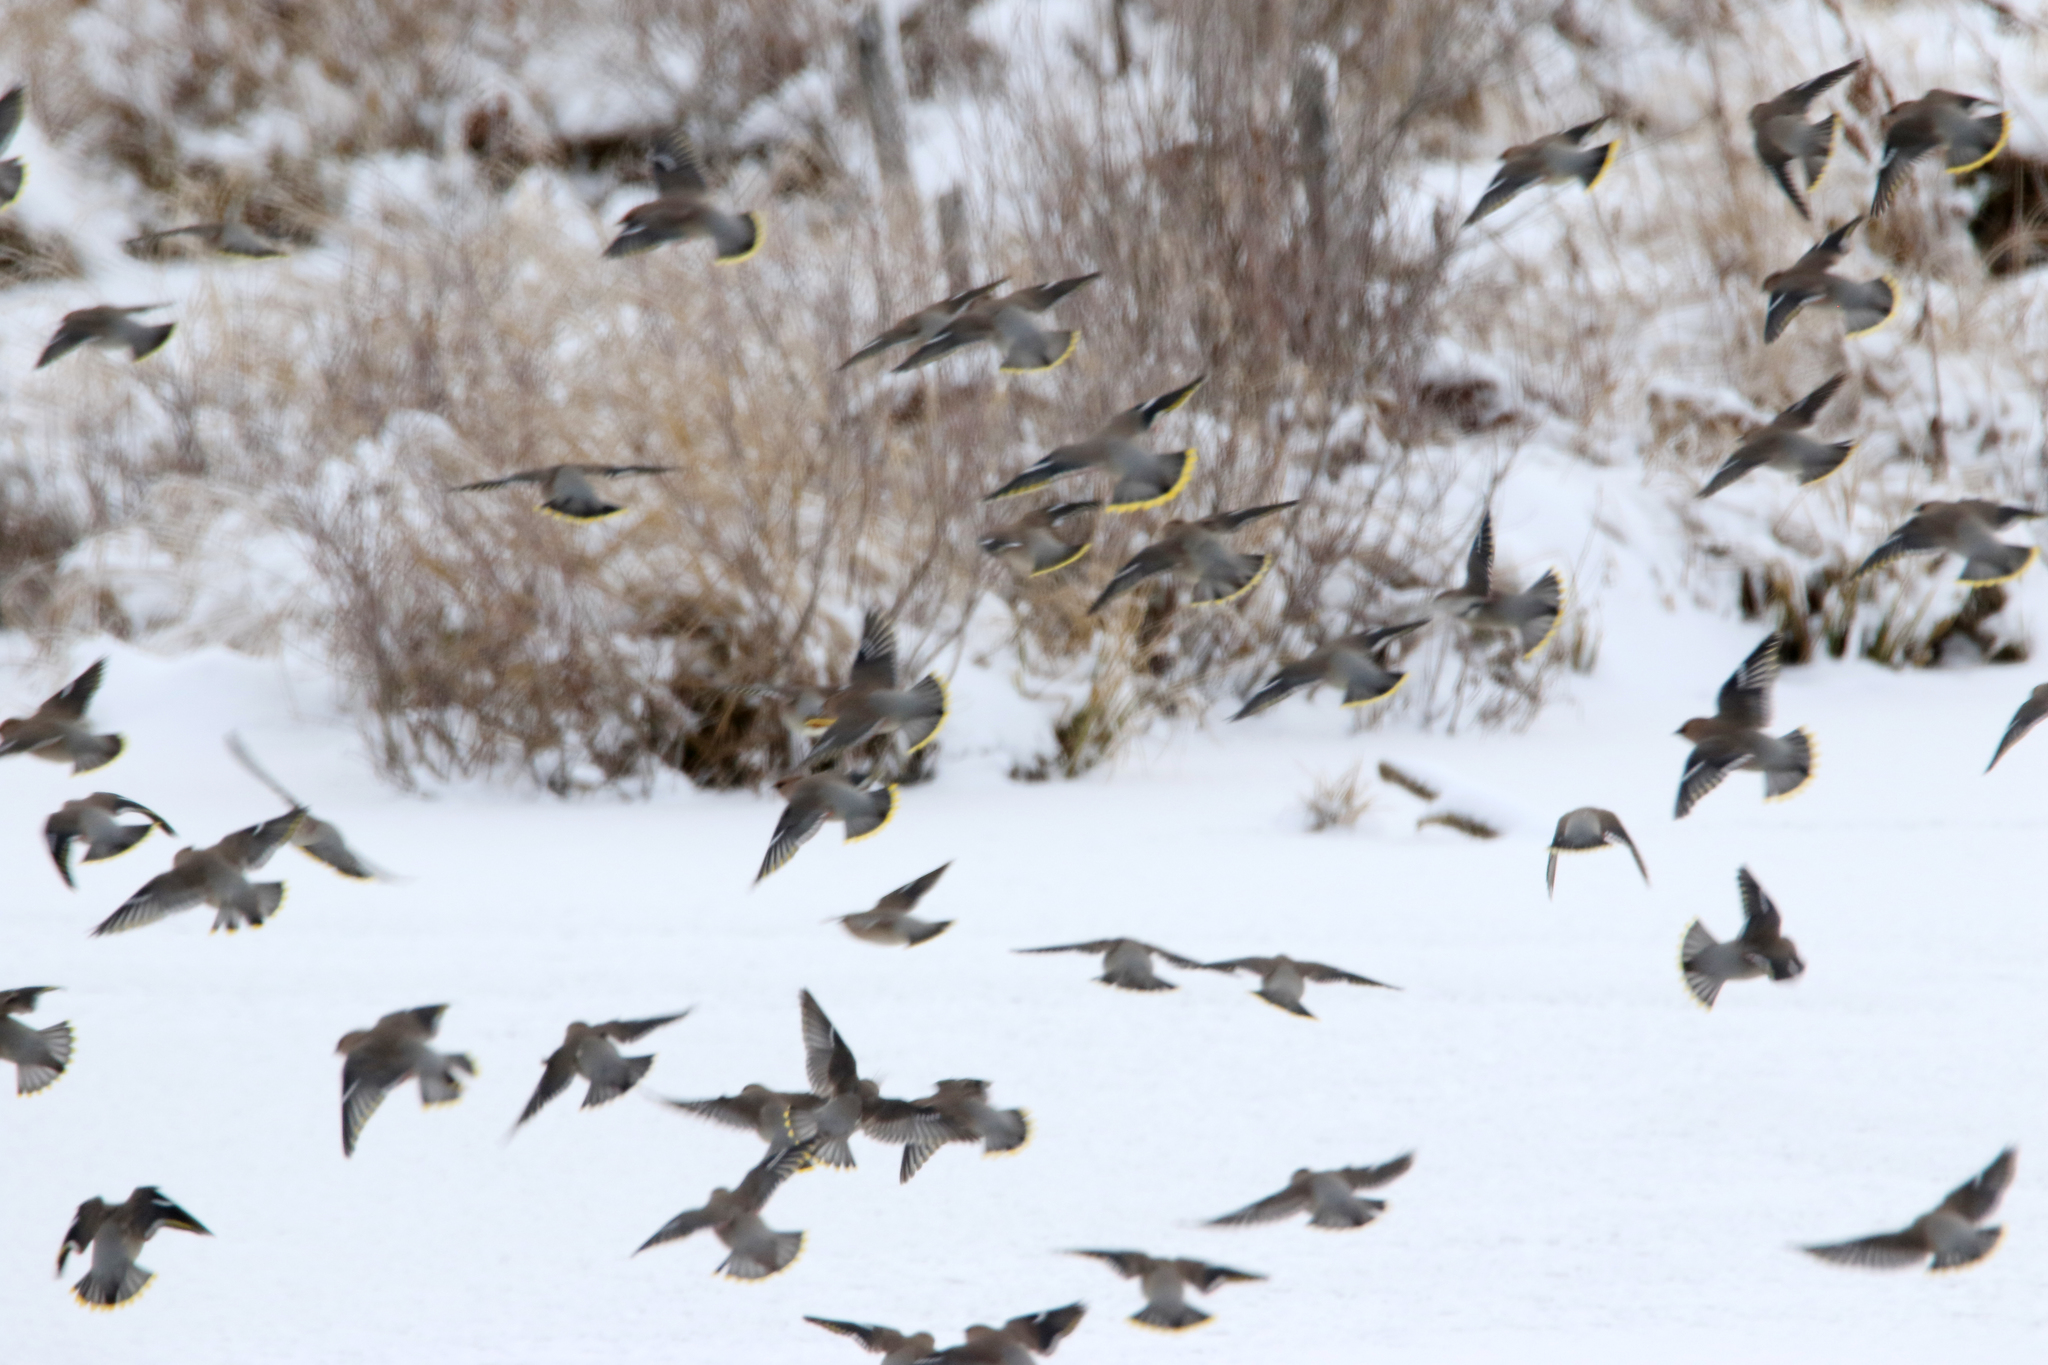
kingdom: Animalia
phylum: Chordata
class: Aves
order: Passeriformes
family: Bombycillidae
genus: Bombycilla
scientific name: Bombycilla garrulus
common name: Bohemian waxwing
